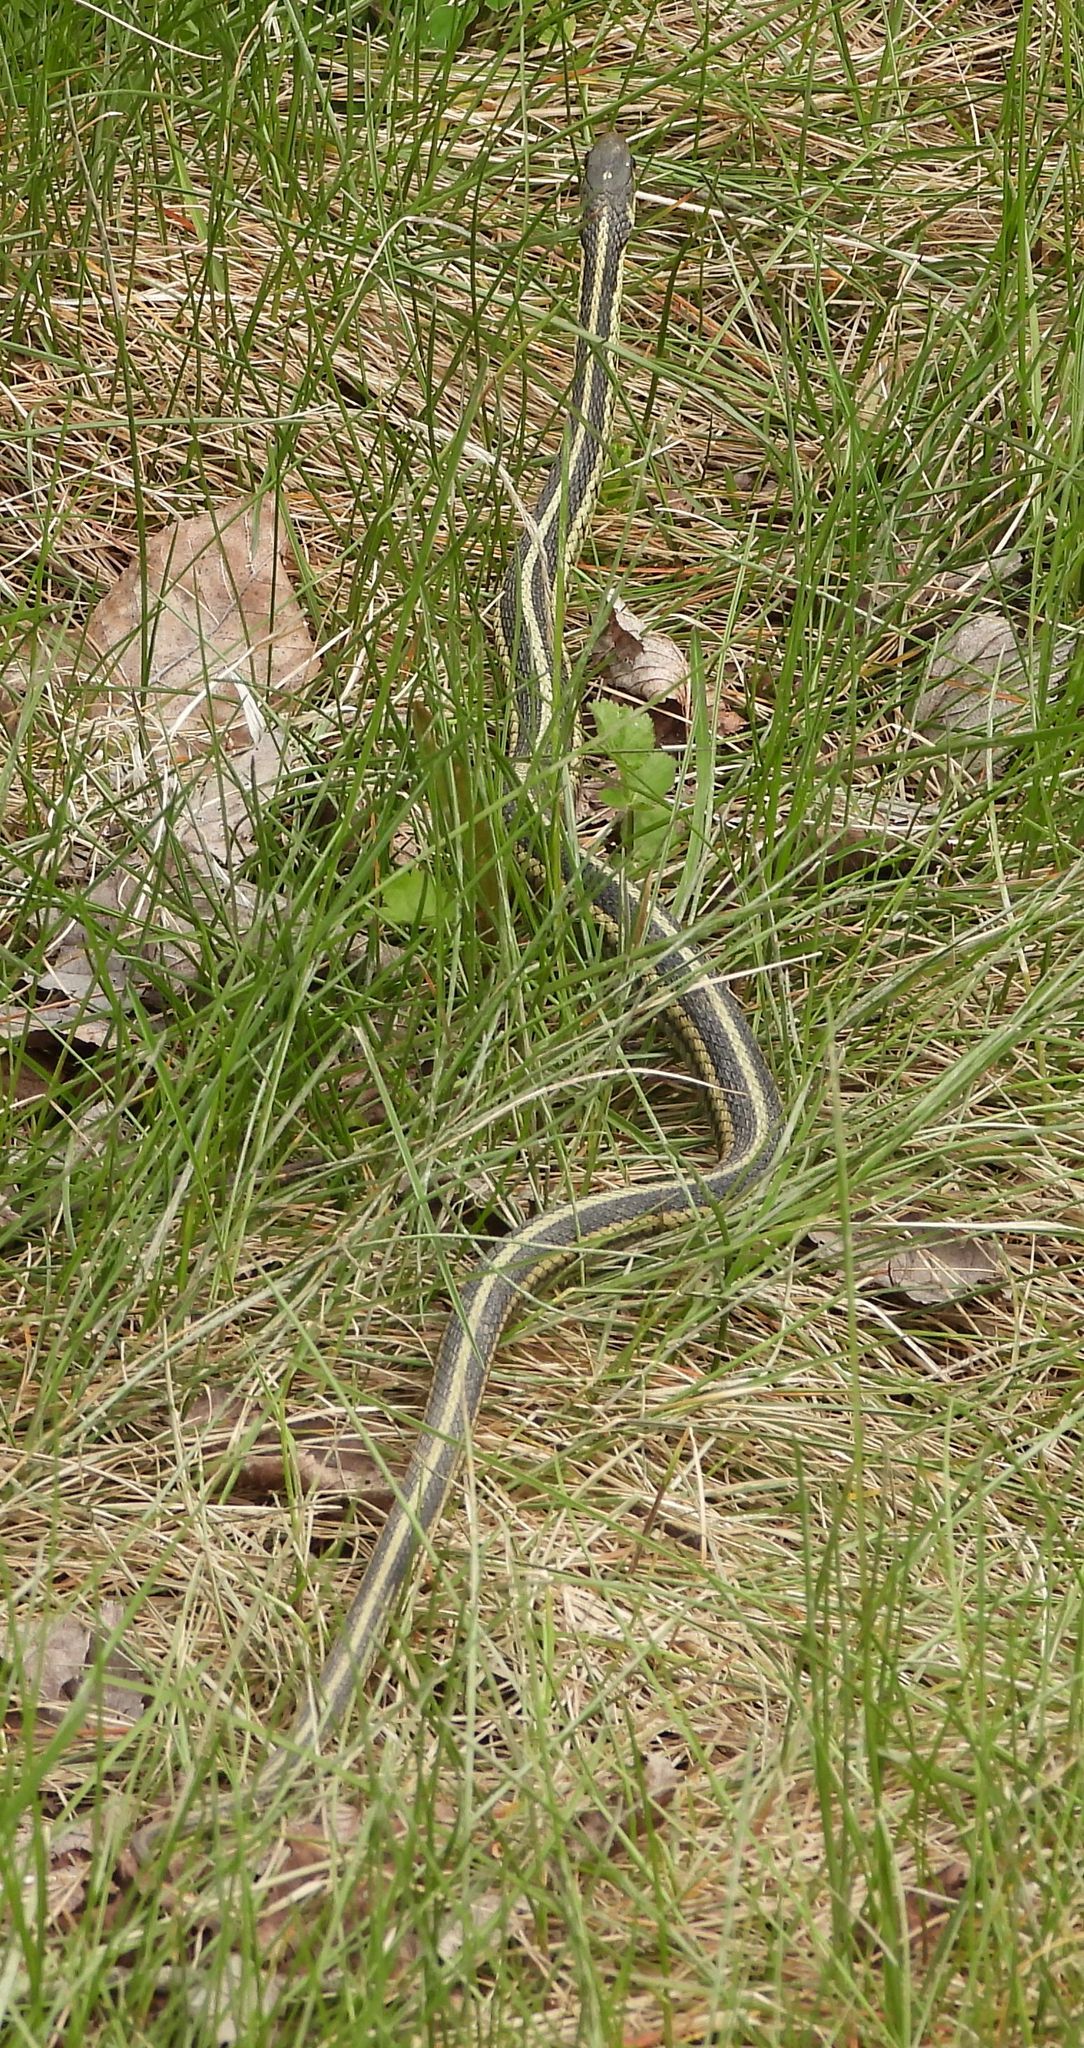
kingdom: Animalia
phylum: Chordata
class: Squamata
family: Colubridae
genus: Thamnophis
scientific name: Thamnophis sirtalis
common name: Common garter snake
